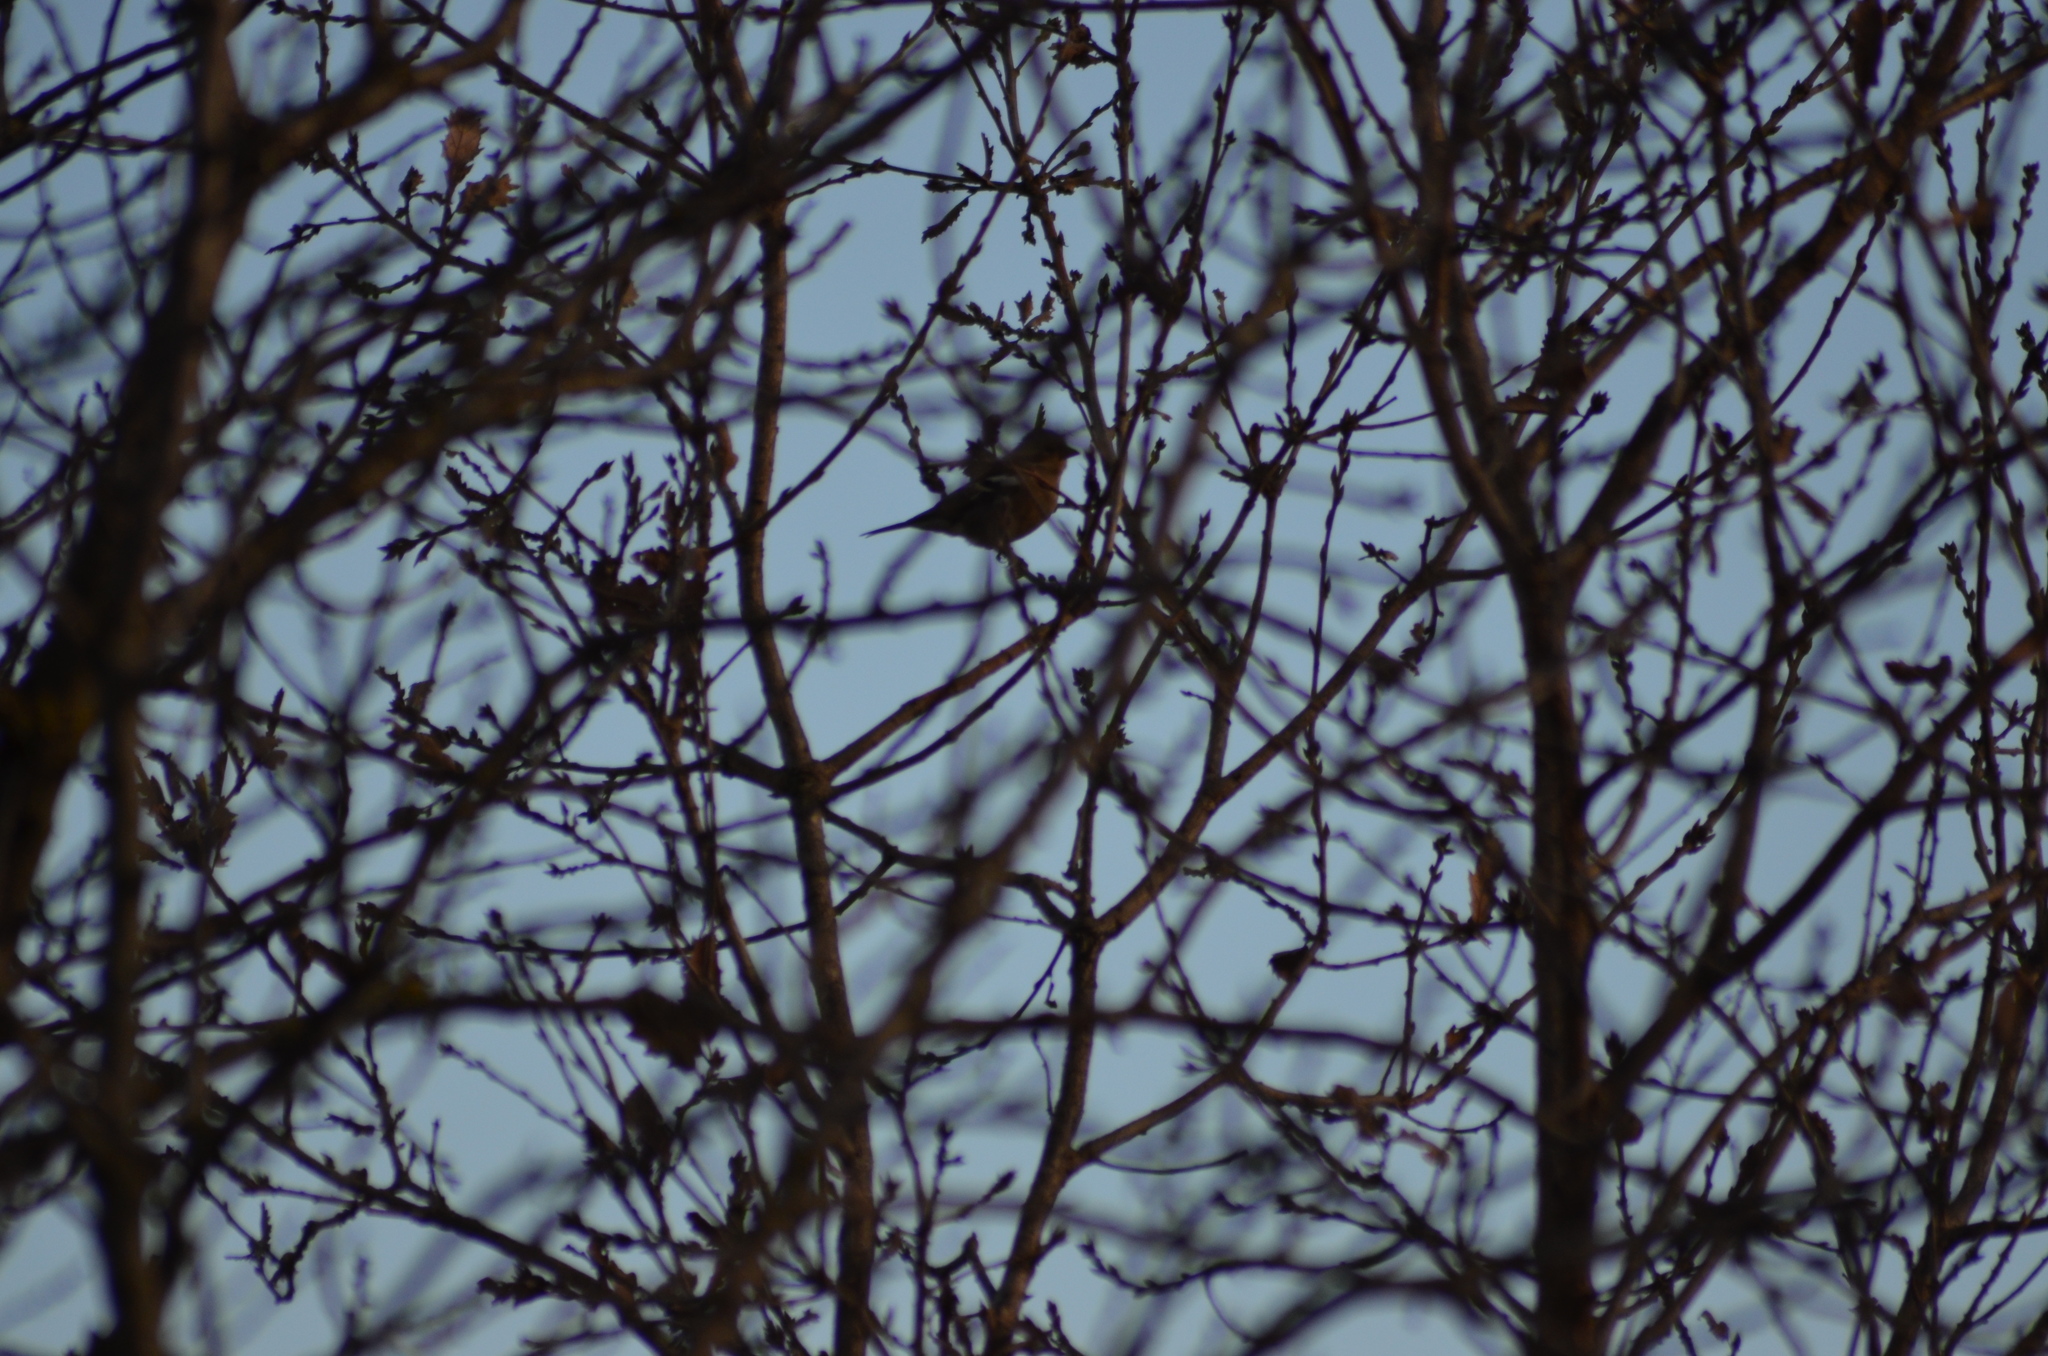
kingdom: Animalia
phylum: Chordata
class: Aves
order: Passeriformes
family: Fringillidae
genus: Fringilla
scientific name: Fringilla coelebs
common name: Common chaffinch
